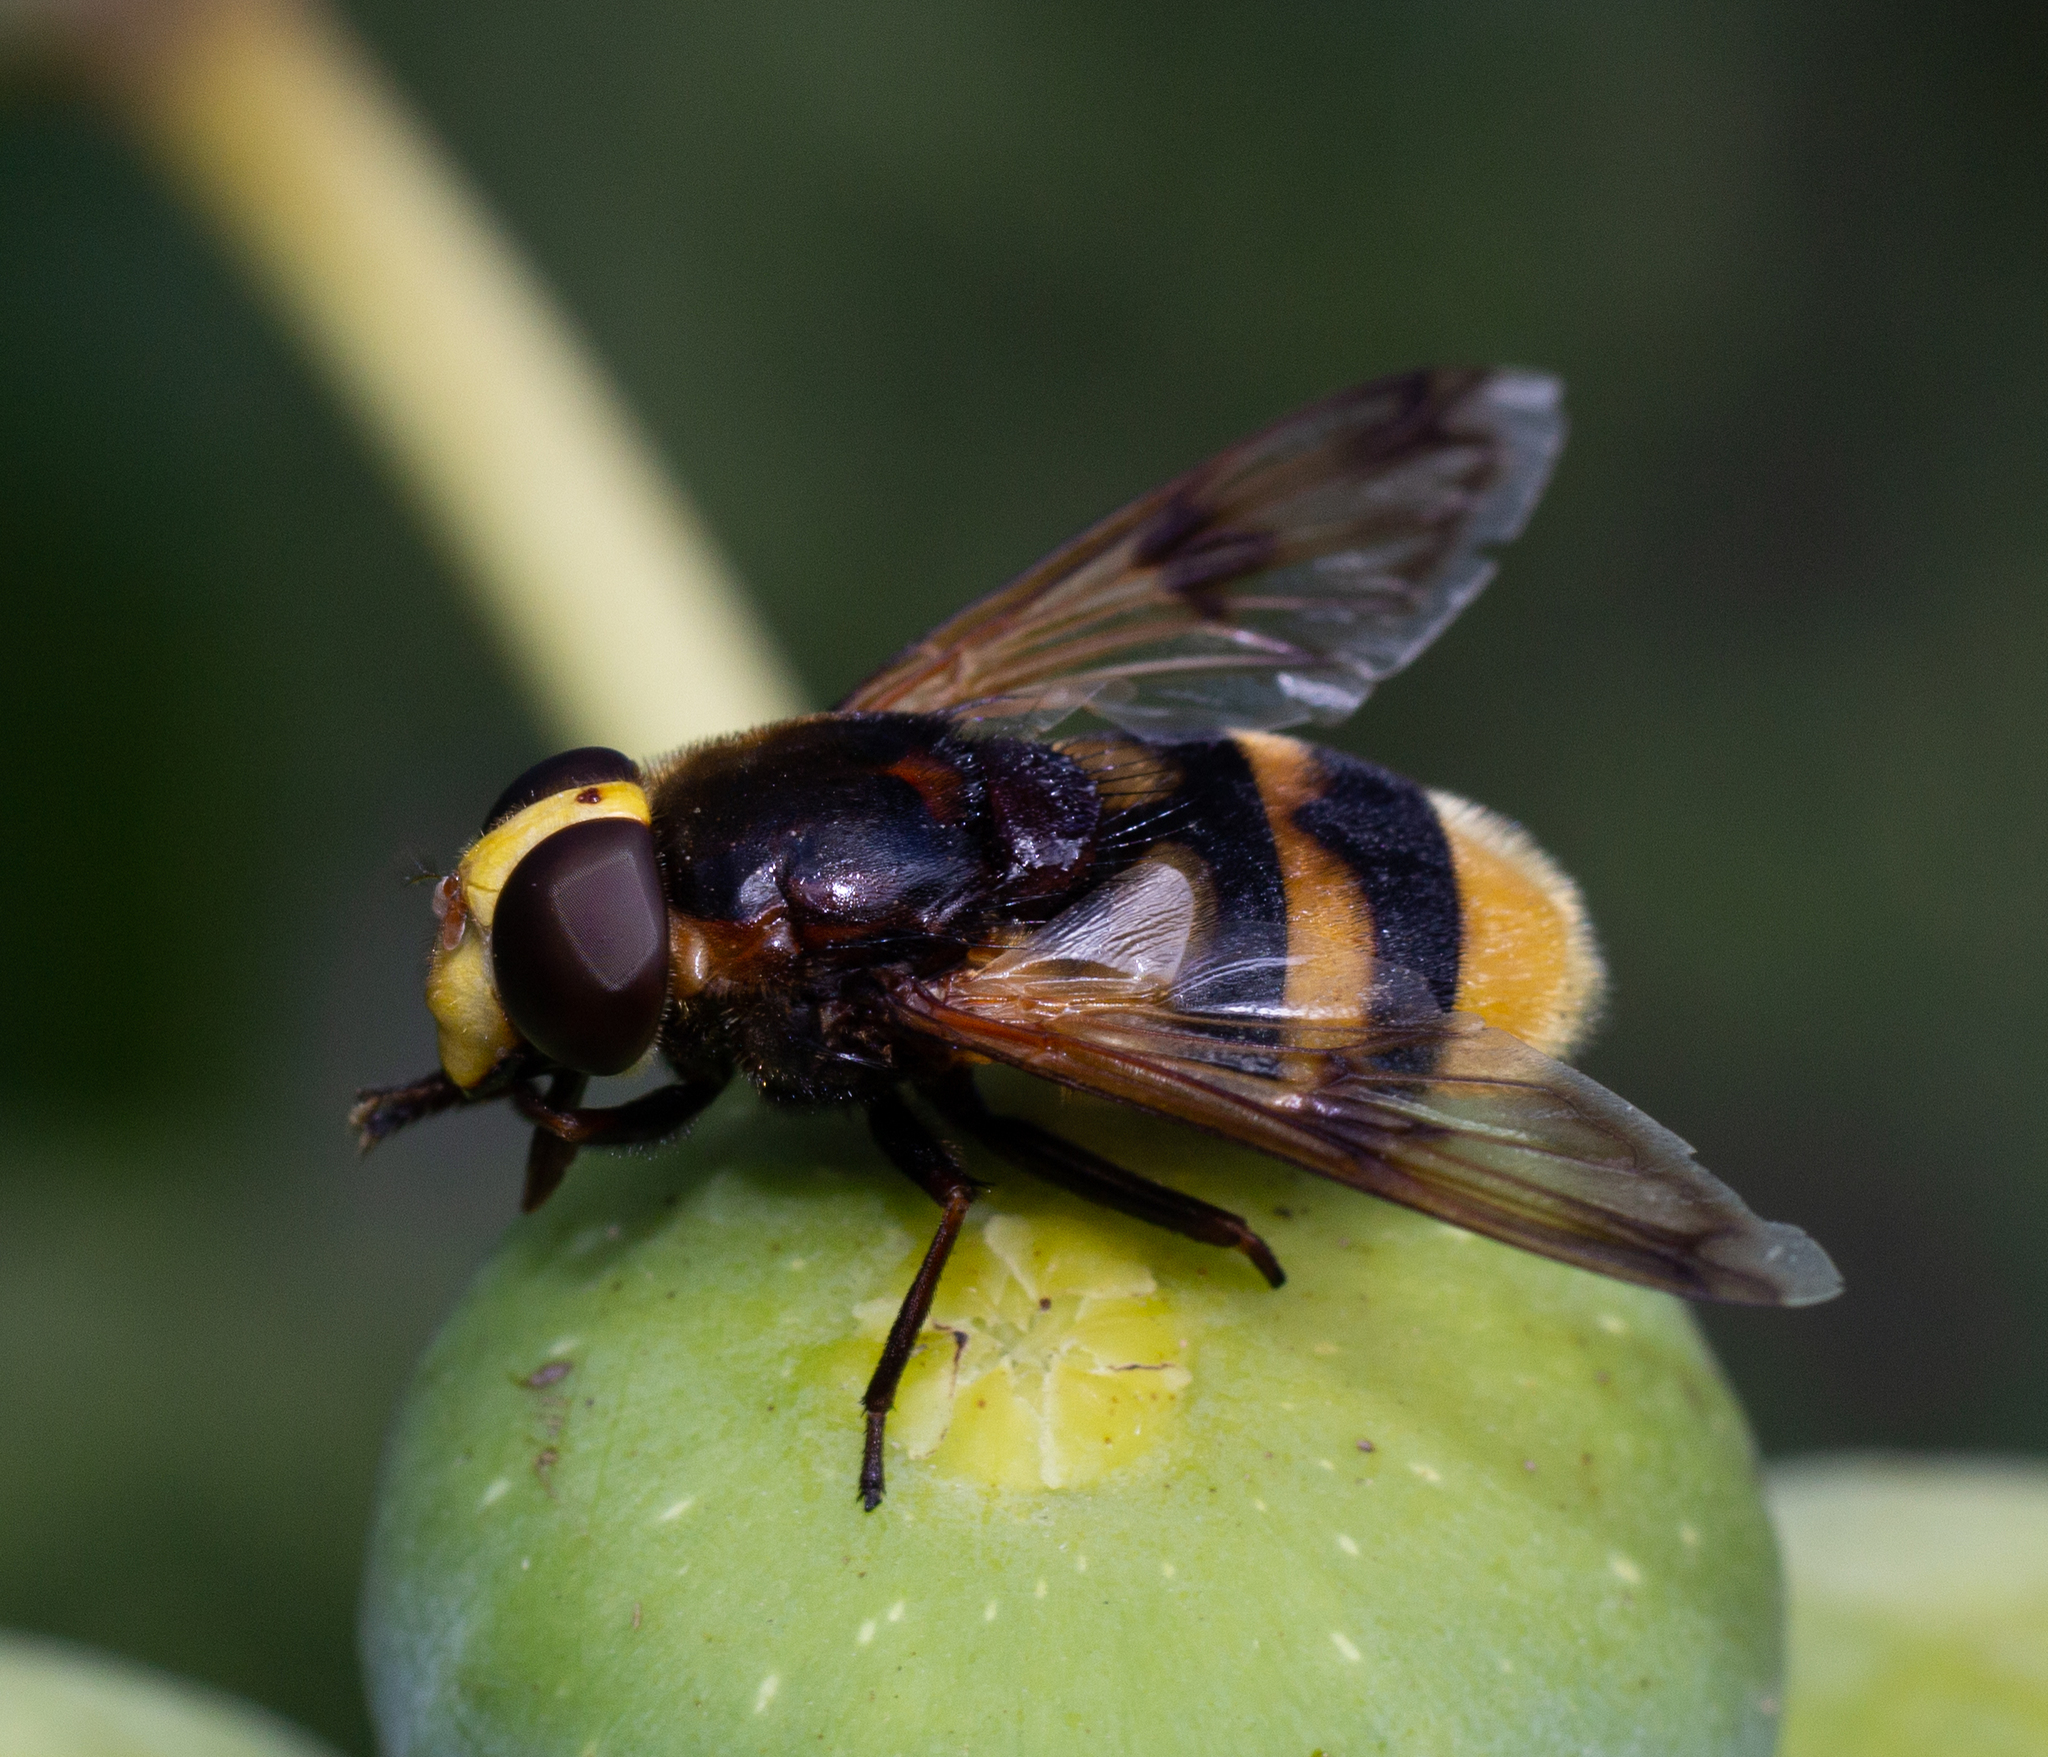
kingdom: Animalia
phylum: Arthropoda
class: Insecta
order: Diptera
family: Syrphidae
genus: Volucella
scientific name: Volucella elegans
